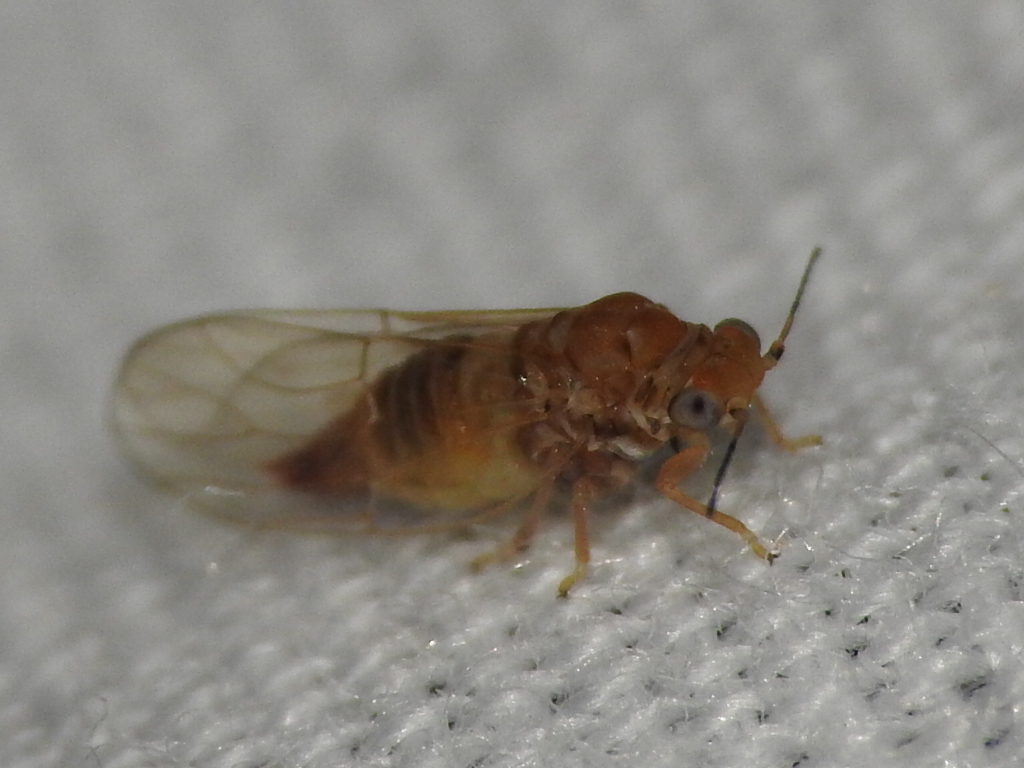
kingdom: Animalia
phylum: Arthropoda
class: Insecta
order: Hemiptera
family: Aphalaridae
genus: Gyropsylla
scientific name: Gyropsylla ilecis
